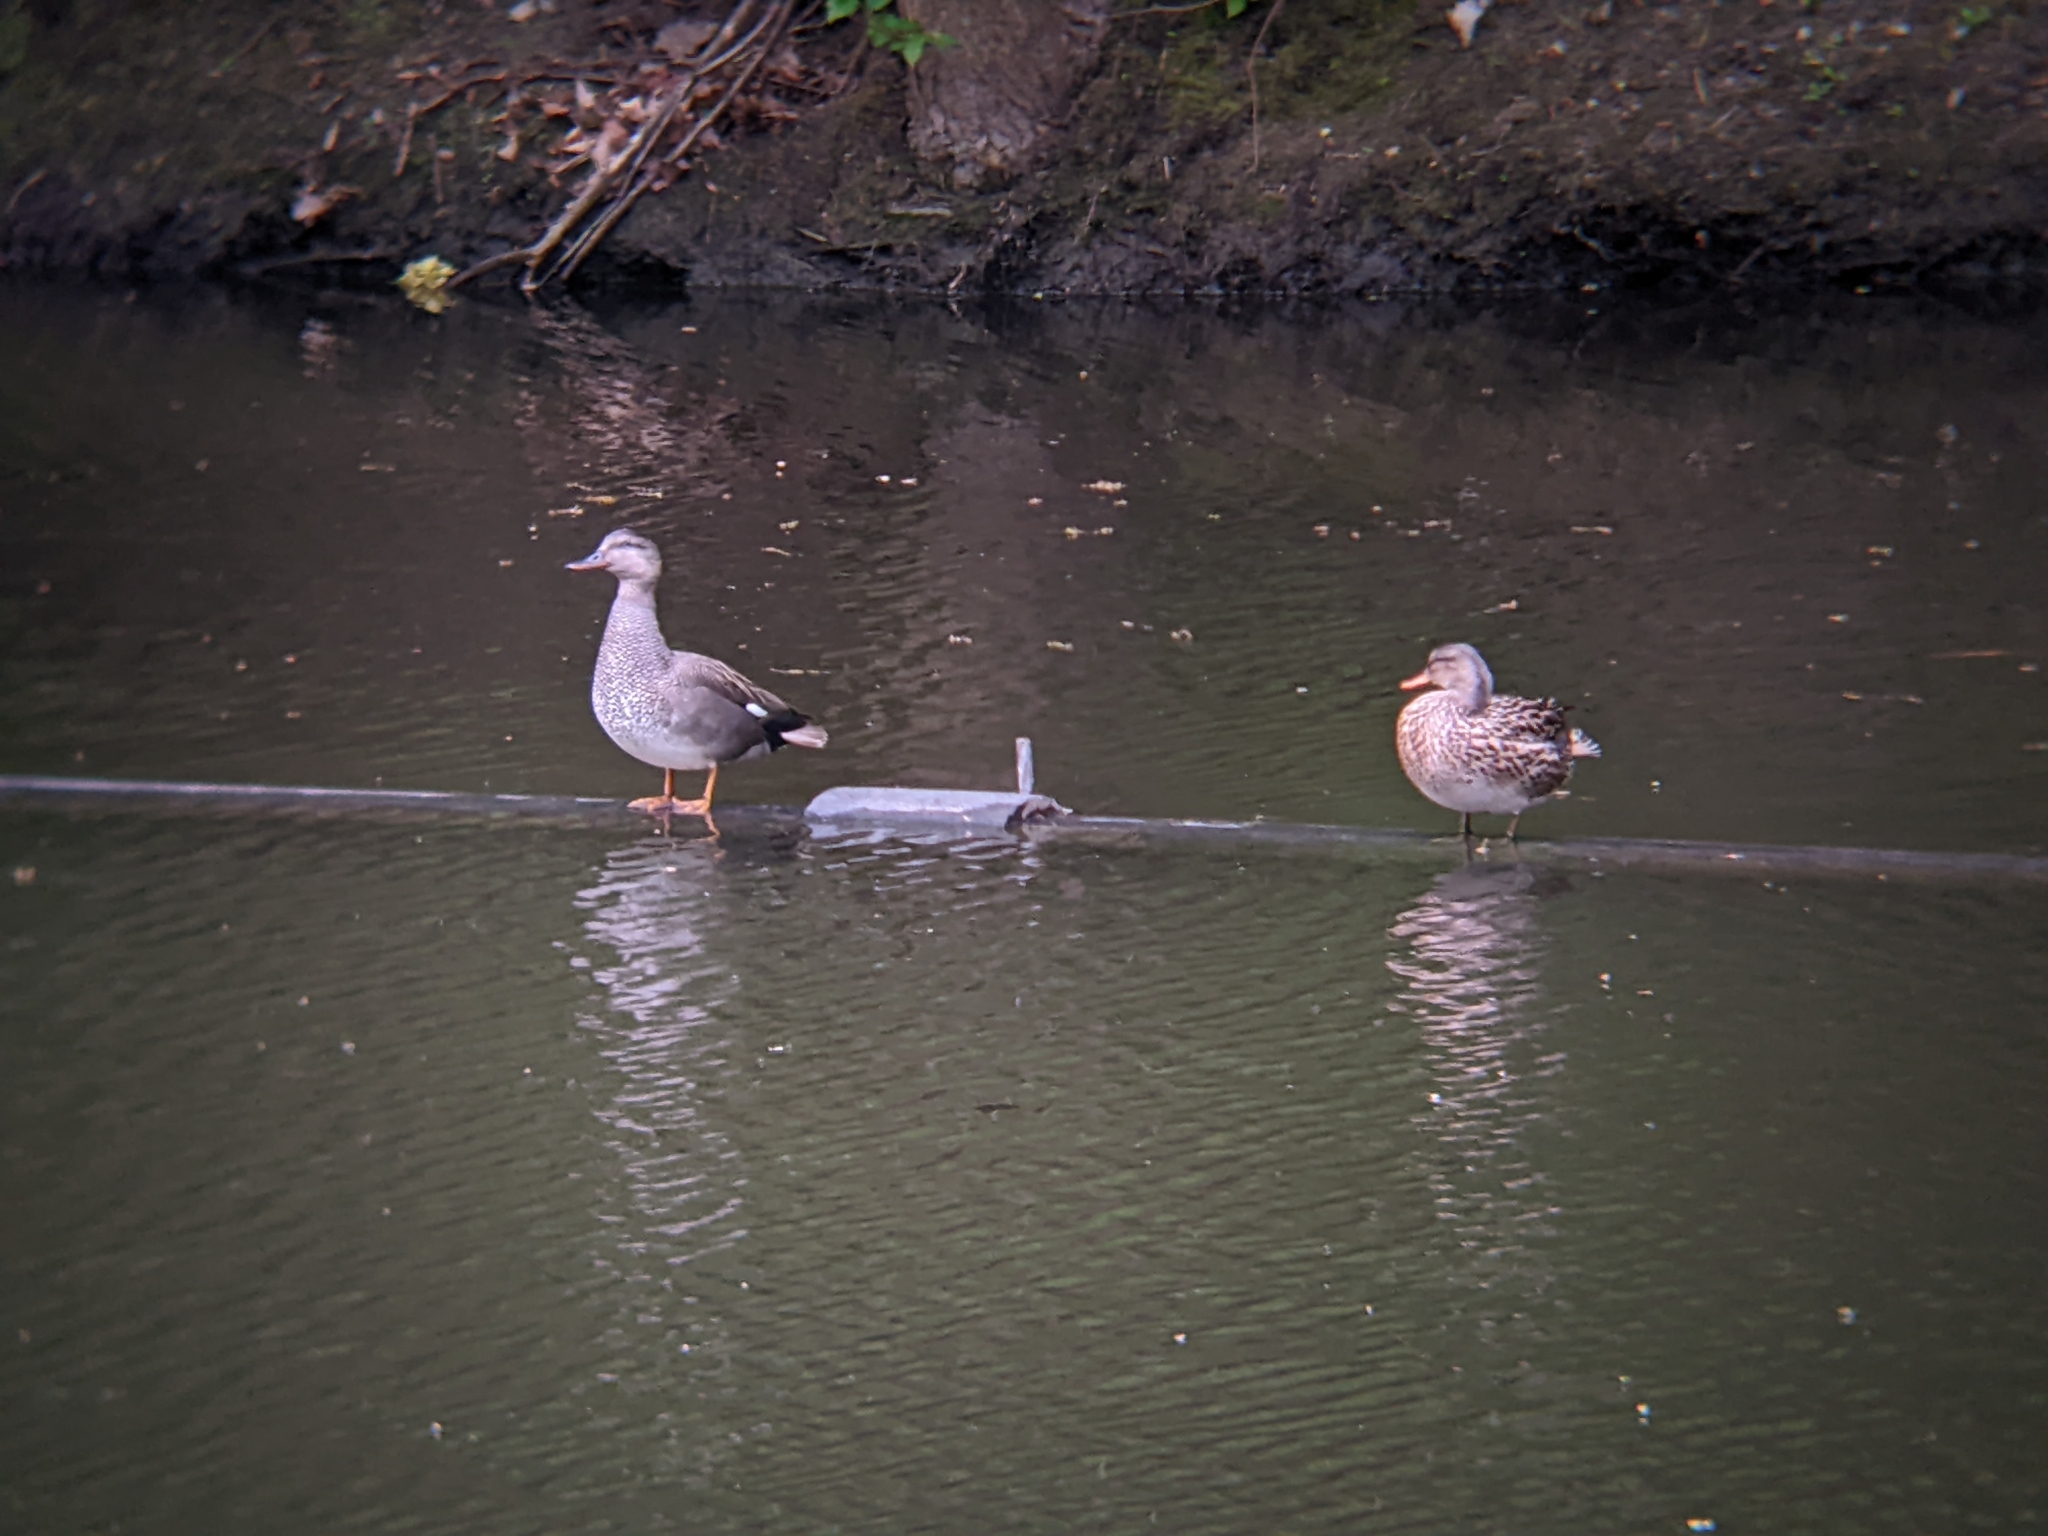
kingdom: Animalia
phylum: Chordata
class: Aves
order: Anseriformes
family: Anatidae
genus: Mareca
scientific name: Mareca strepera
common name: Gadwall
